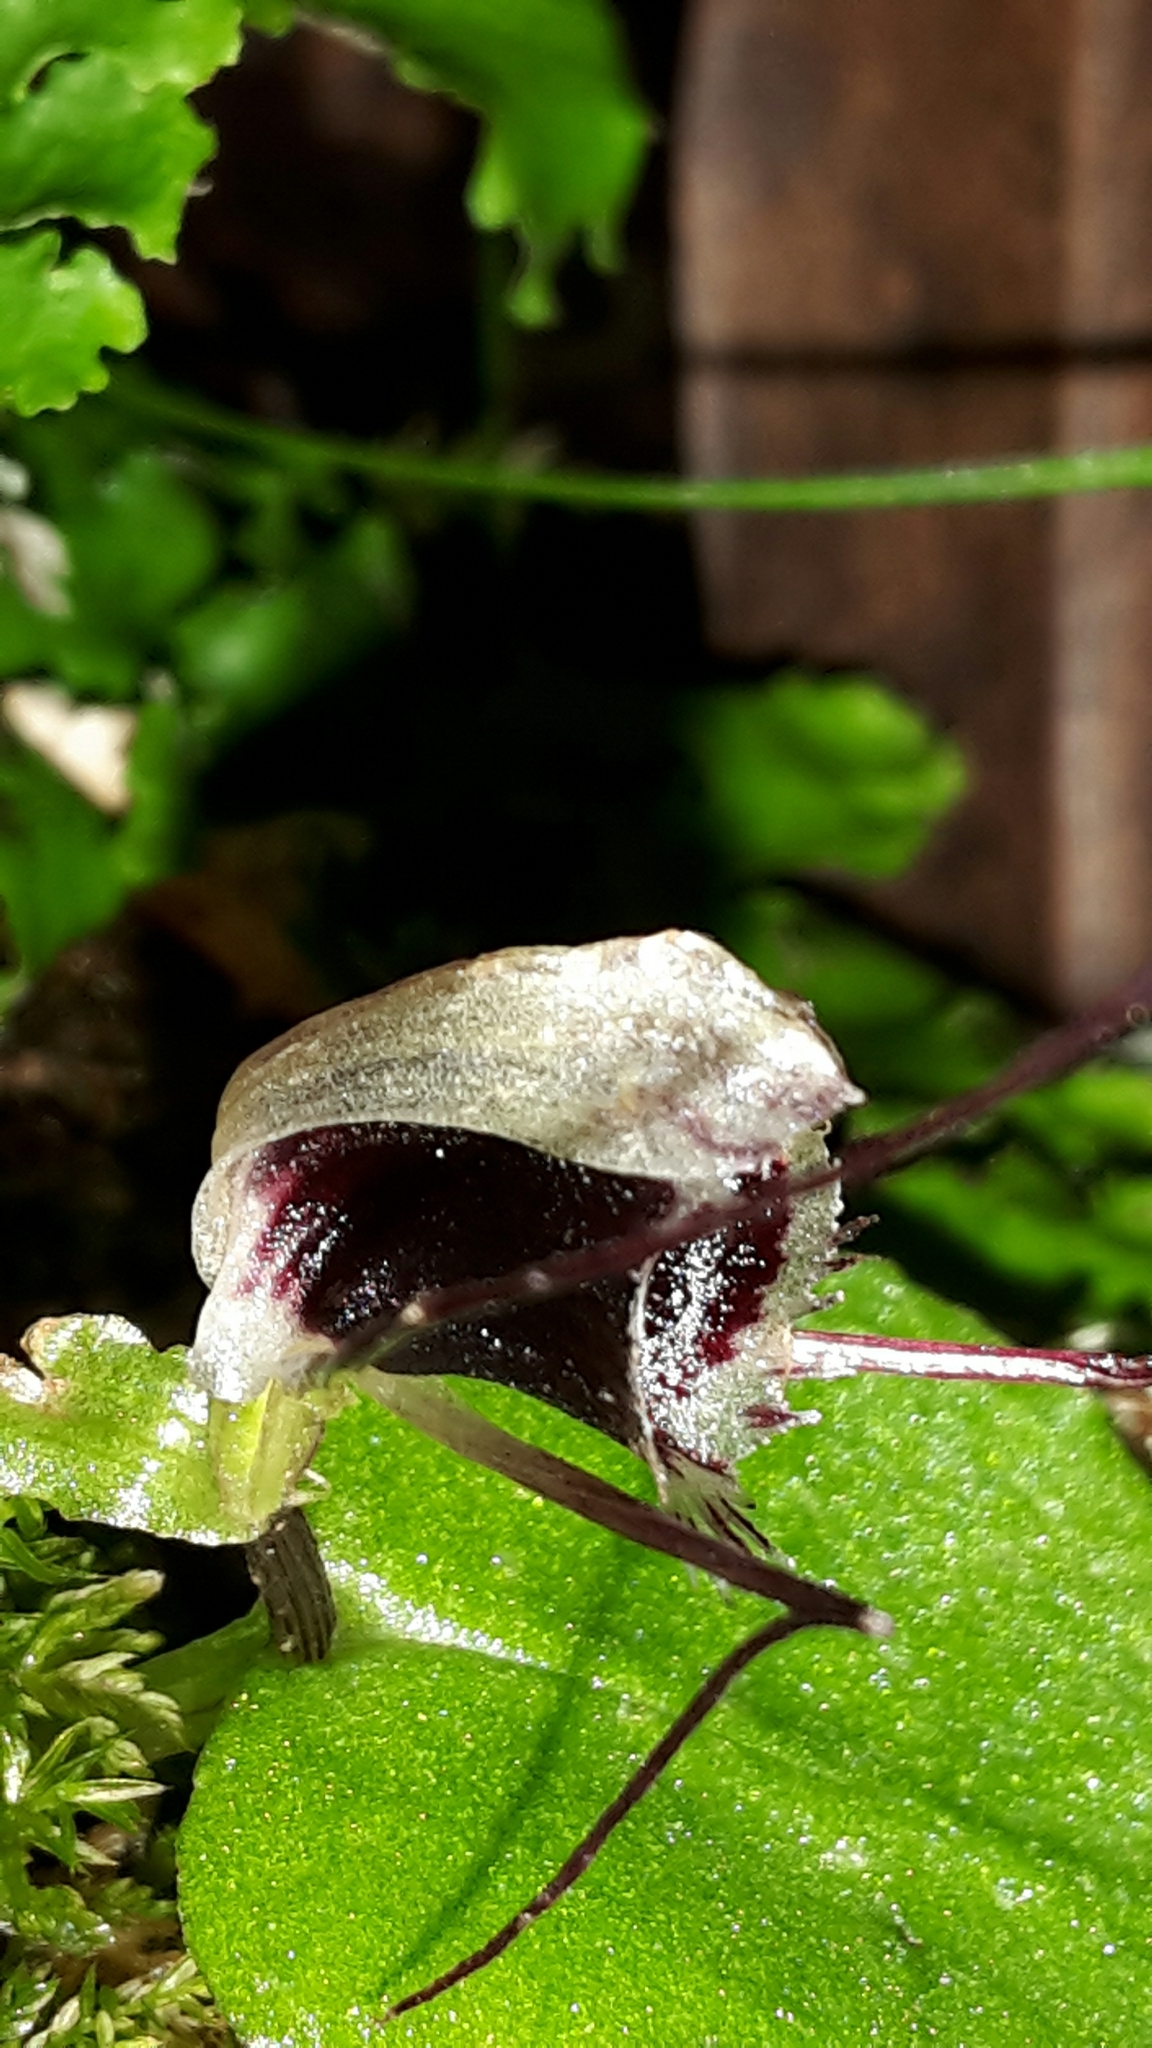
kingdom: Plantae
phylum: Tracheophyta
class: Liliopsida
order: Asparagales
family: Orchidaceae
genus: Corybas
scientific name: Corybas oblongus
